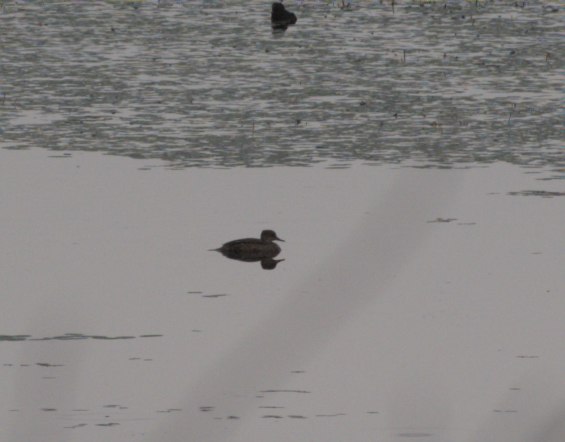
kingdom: Animalia
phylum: Chordata
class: Aves
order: Anseriformes
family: Anatidae
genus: Lophodytes
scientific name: Lophodytes cucullatus
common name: Hooded merganser
